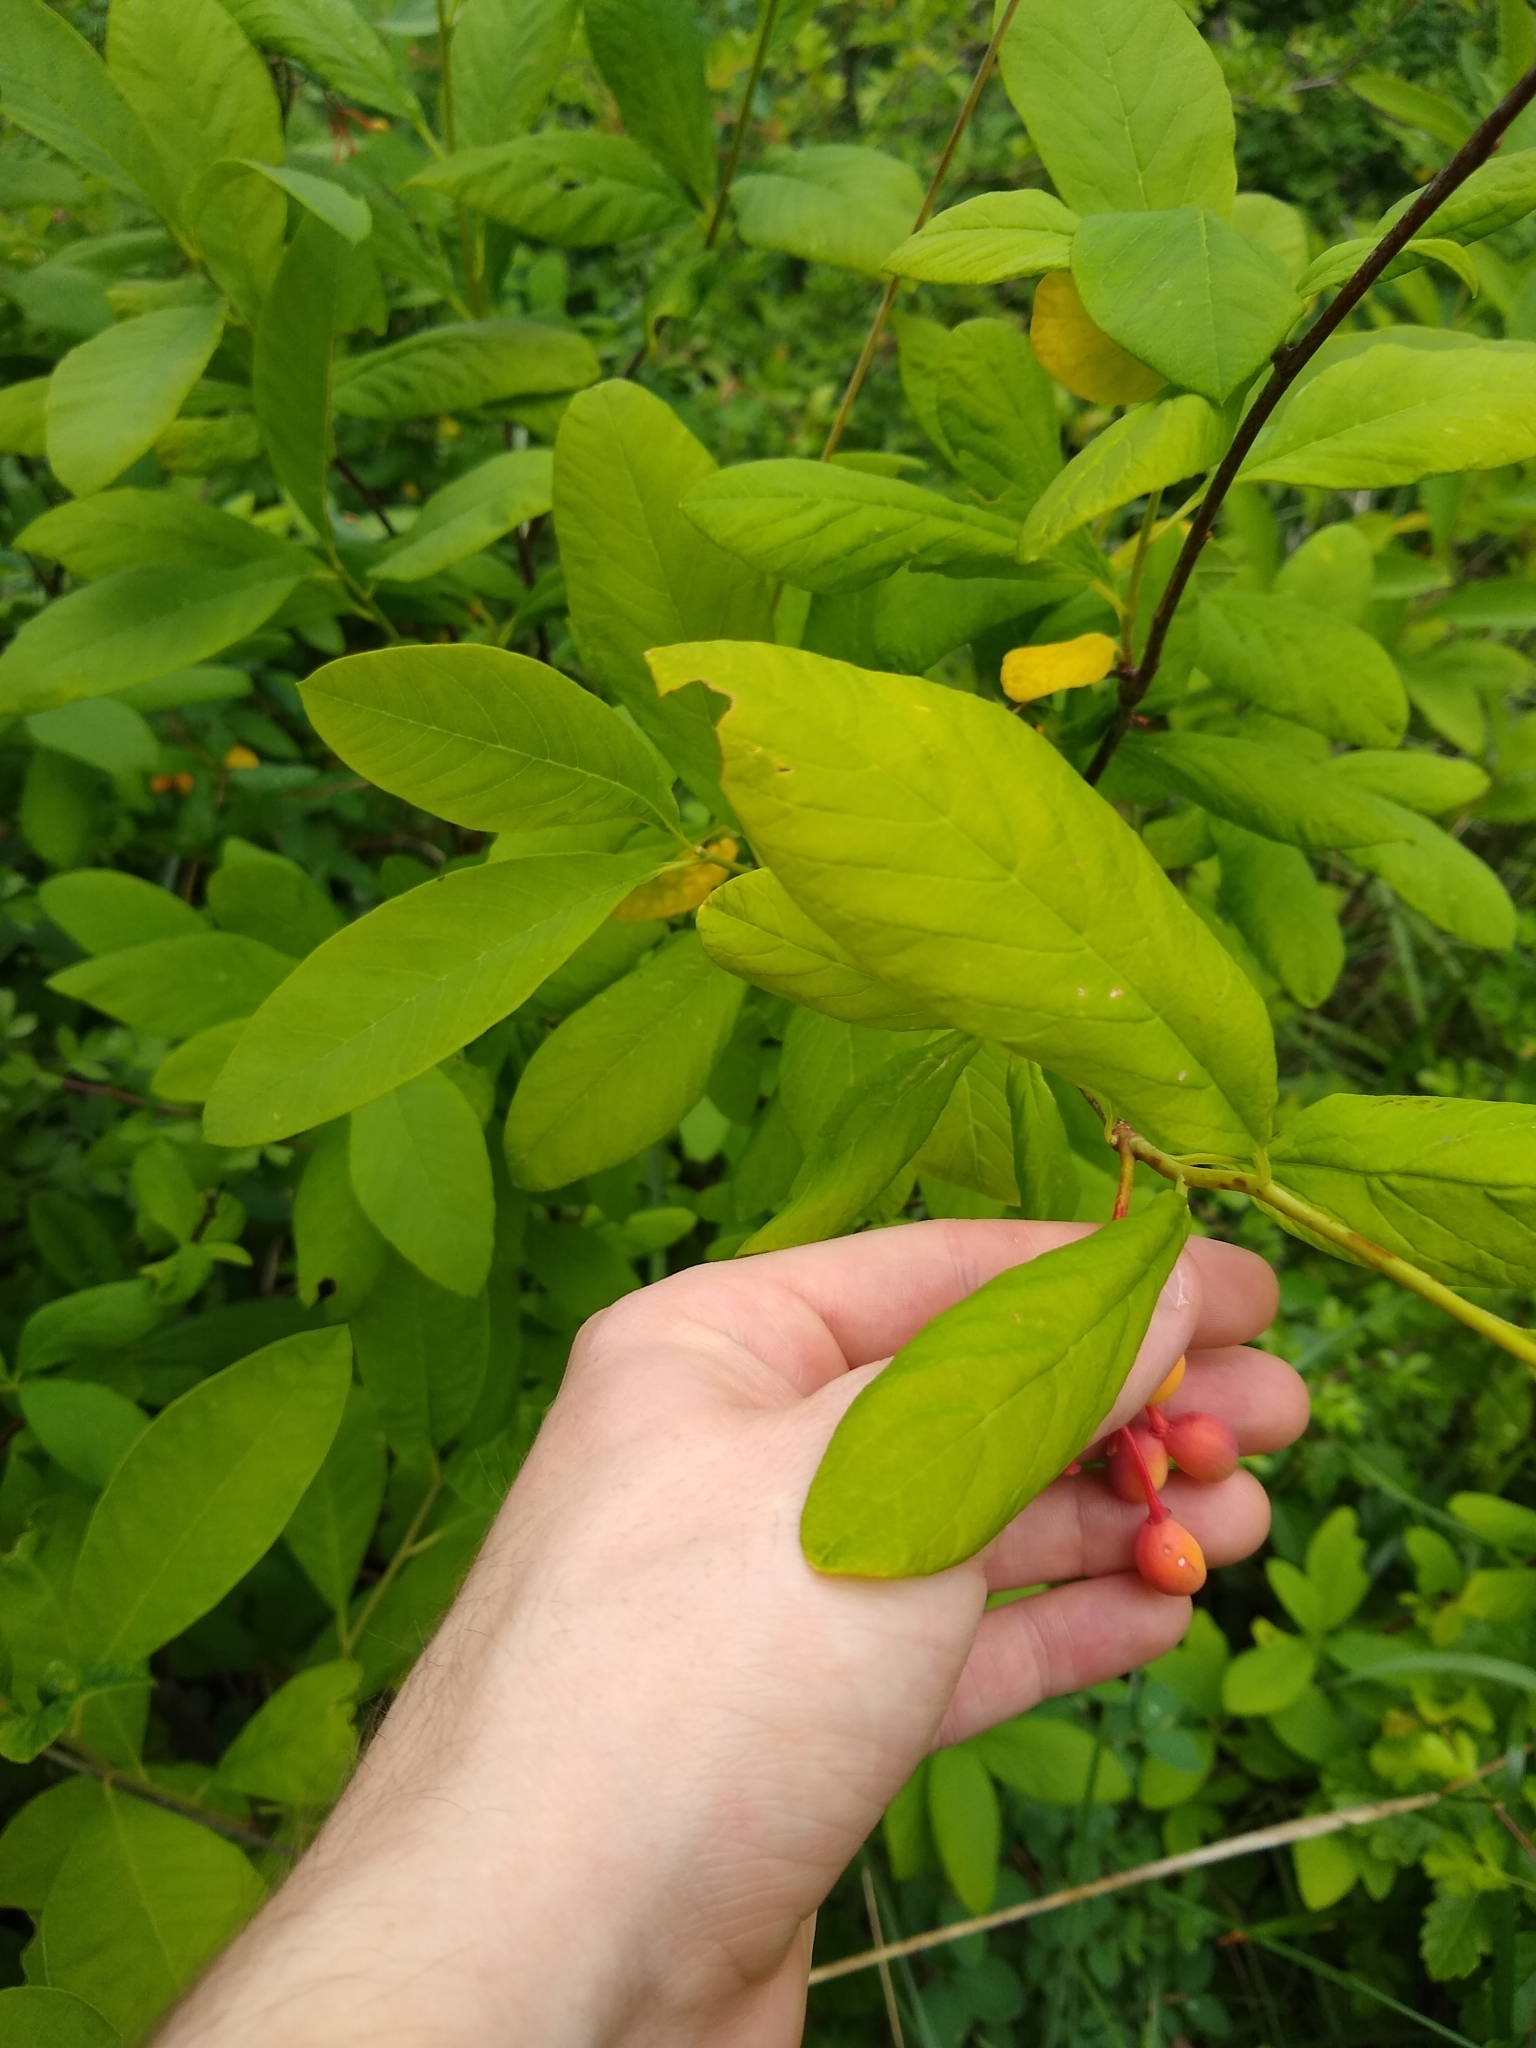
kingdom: Plantae
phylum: Tracheophyta
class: Magnoliopsida
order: Rosales
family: Rosaceae
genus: Oemleria
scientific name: Oemleria cerasiformis
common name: Osoberry
